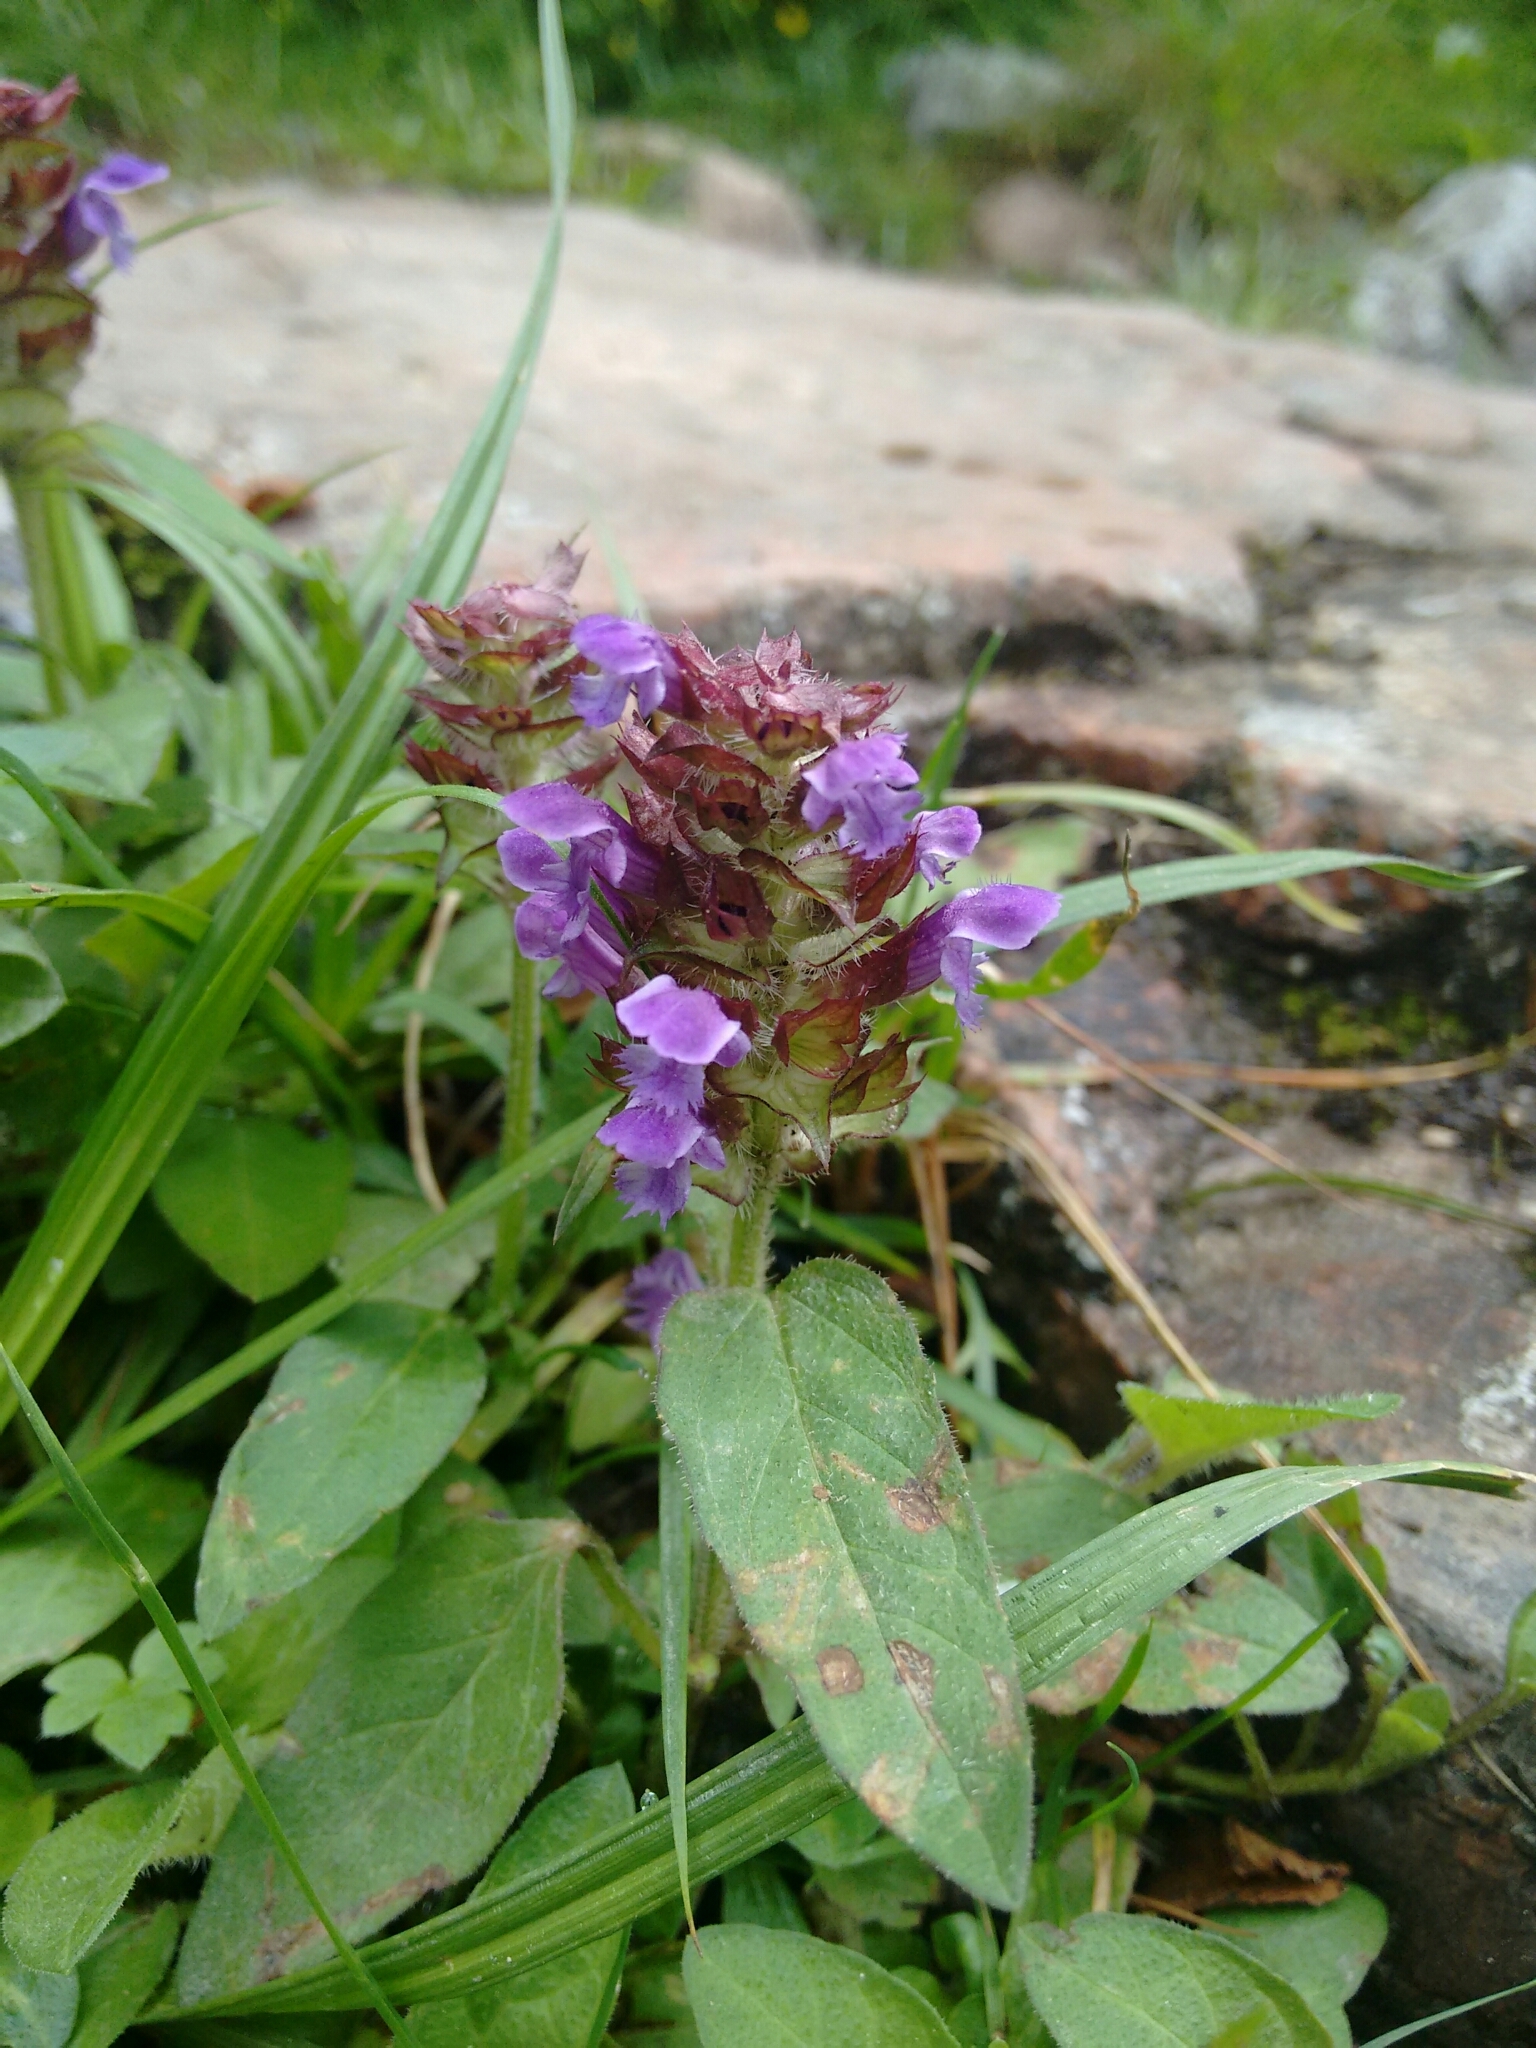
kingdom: Plantae
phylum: Tracheophyta
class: Magnoliopsida
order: Lamiales
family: Lamiaceae
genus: Prunella
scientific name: Prunella vulgaris
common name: Heal-all
